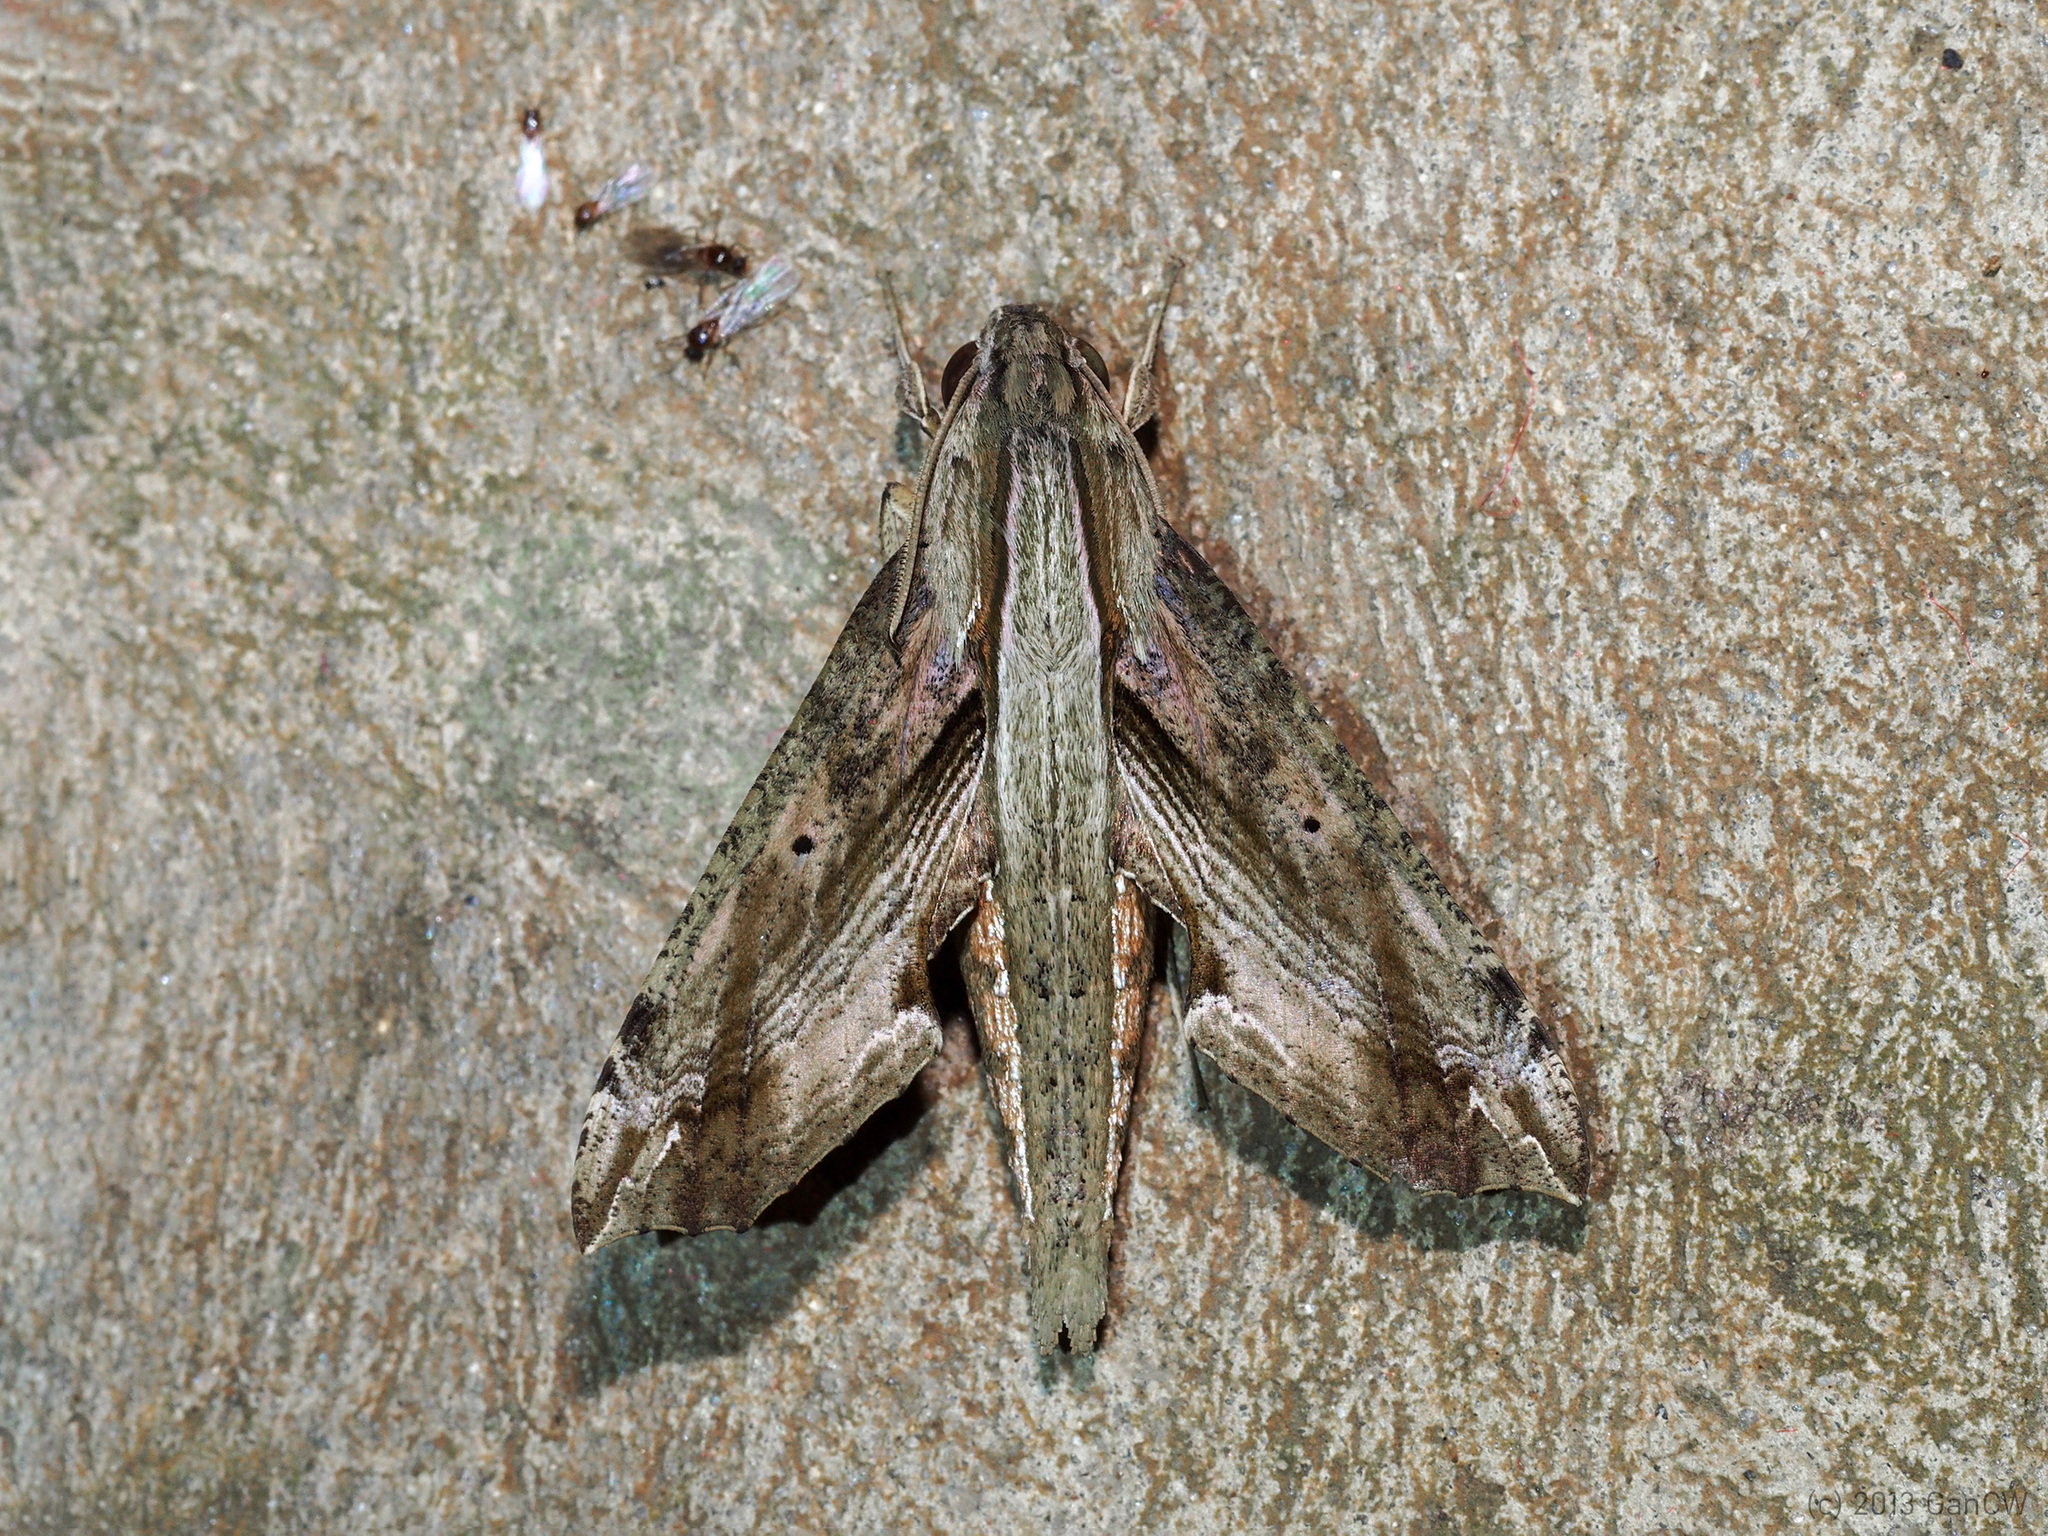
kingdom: Animalia
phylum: Arthropoda
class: Insecta
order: Lepidoptera
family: Sphingidae
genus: Eupanacra
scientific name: Eupanacra regularis
